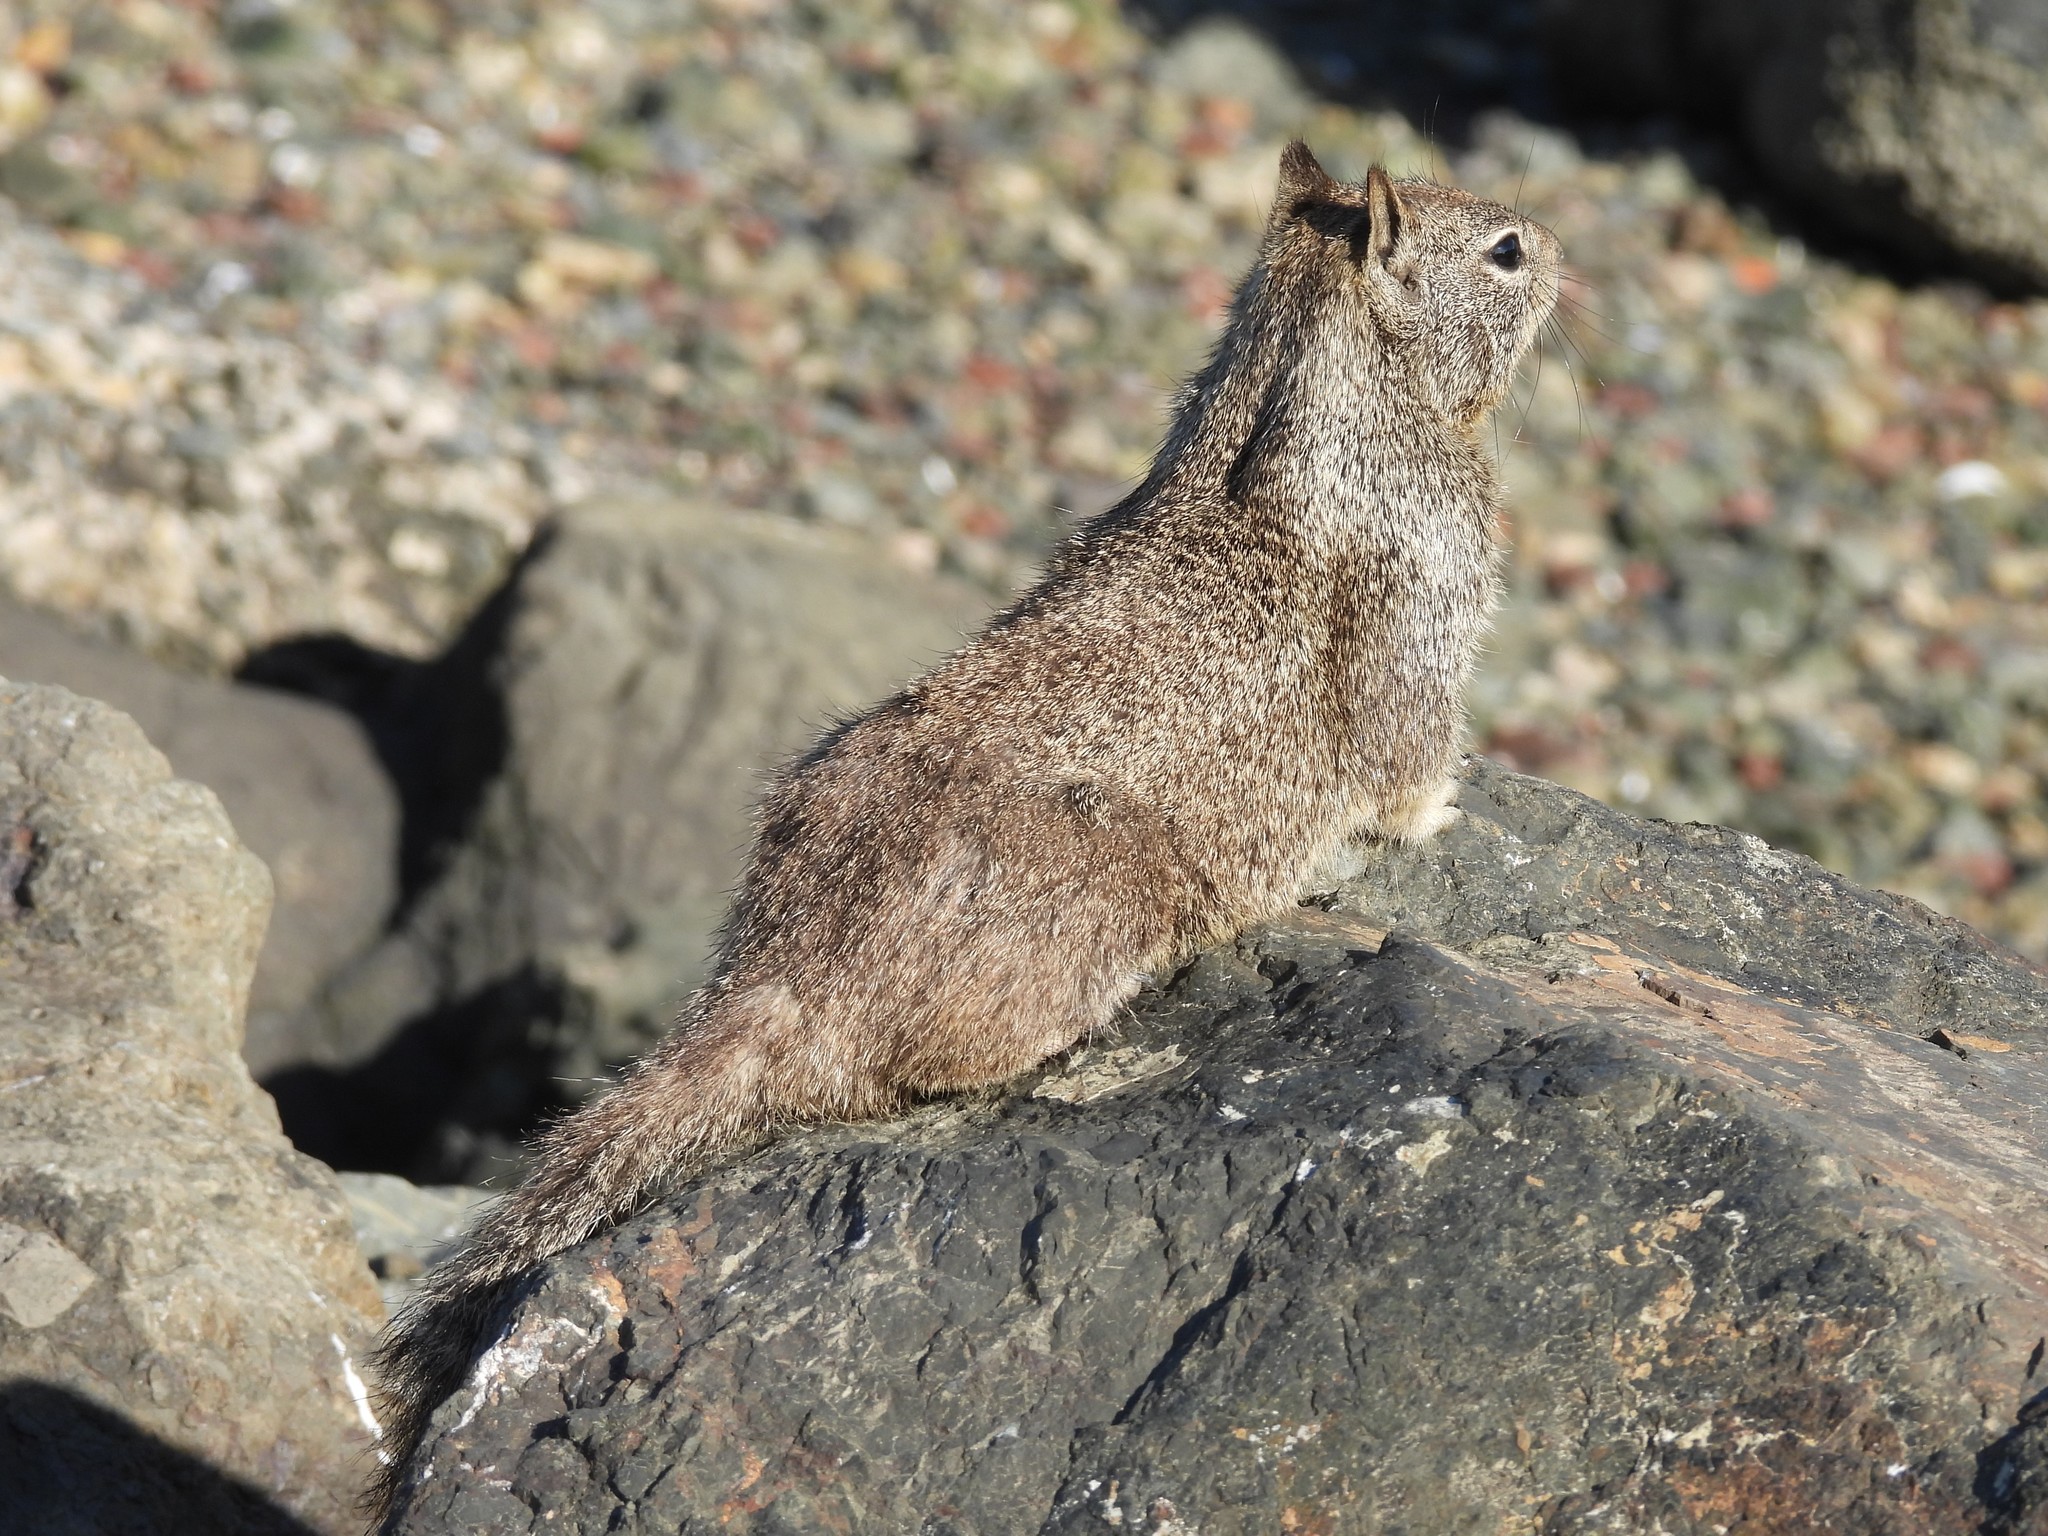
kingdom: Animalia
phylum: Chordata
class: Mammalia
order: Rodentia
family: Sciuridae
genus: Otospermophilus
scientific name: Otospermophilus beecheyi
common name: California ground squirrel
